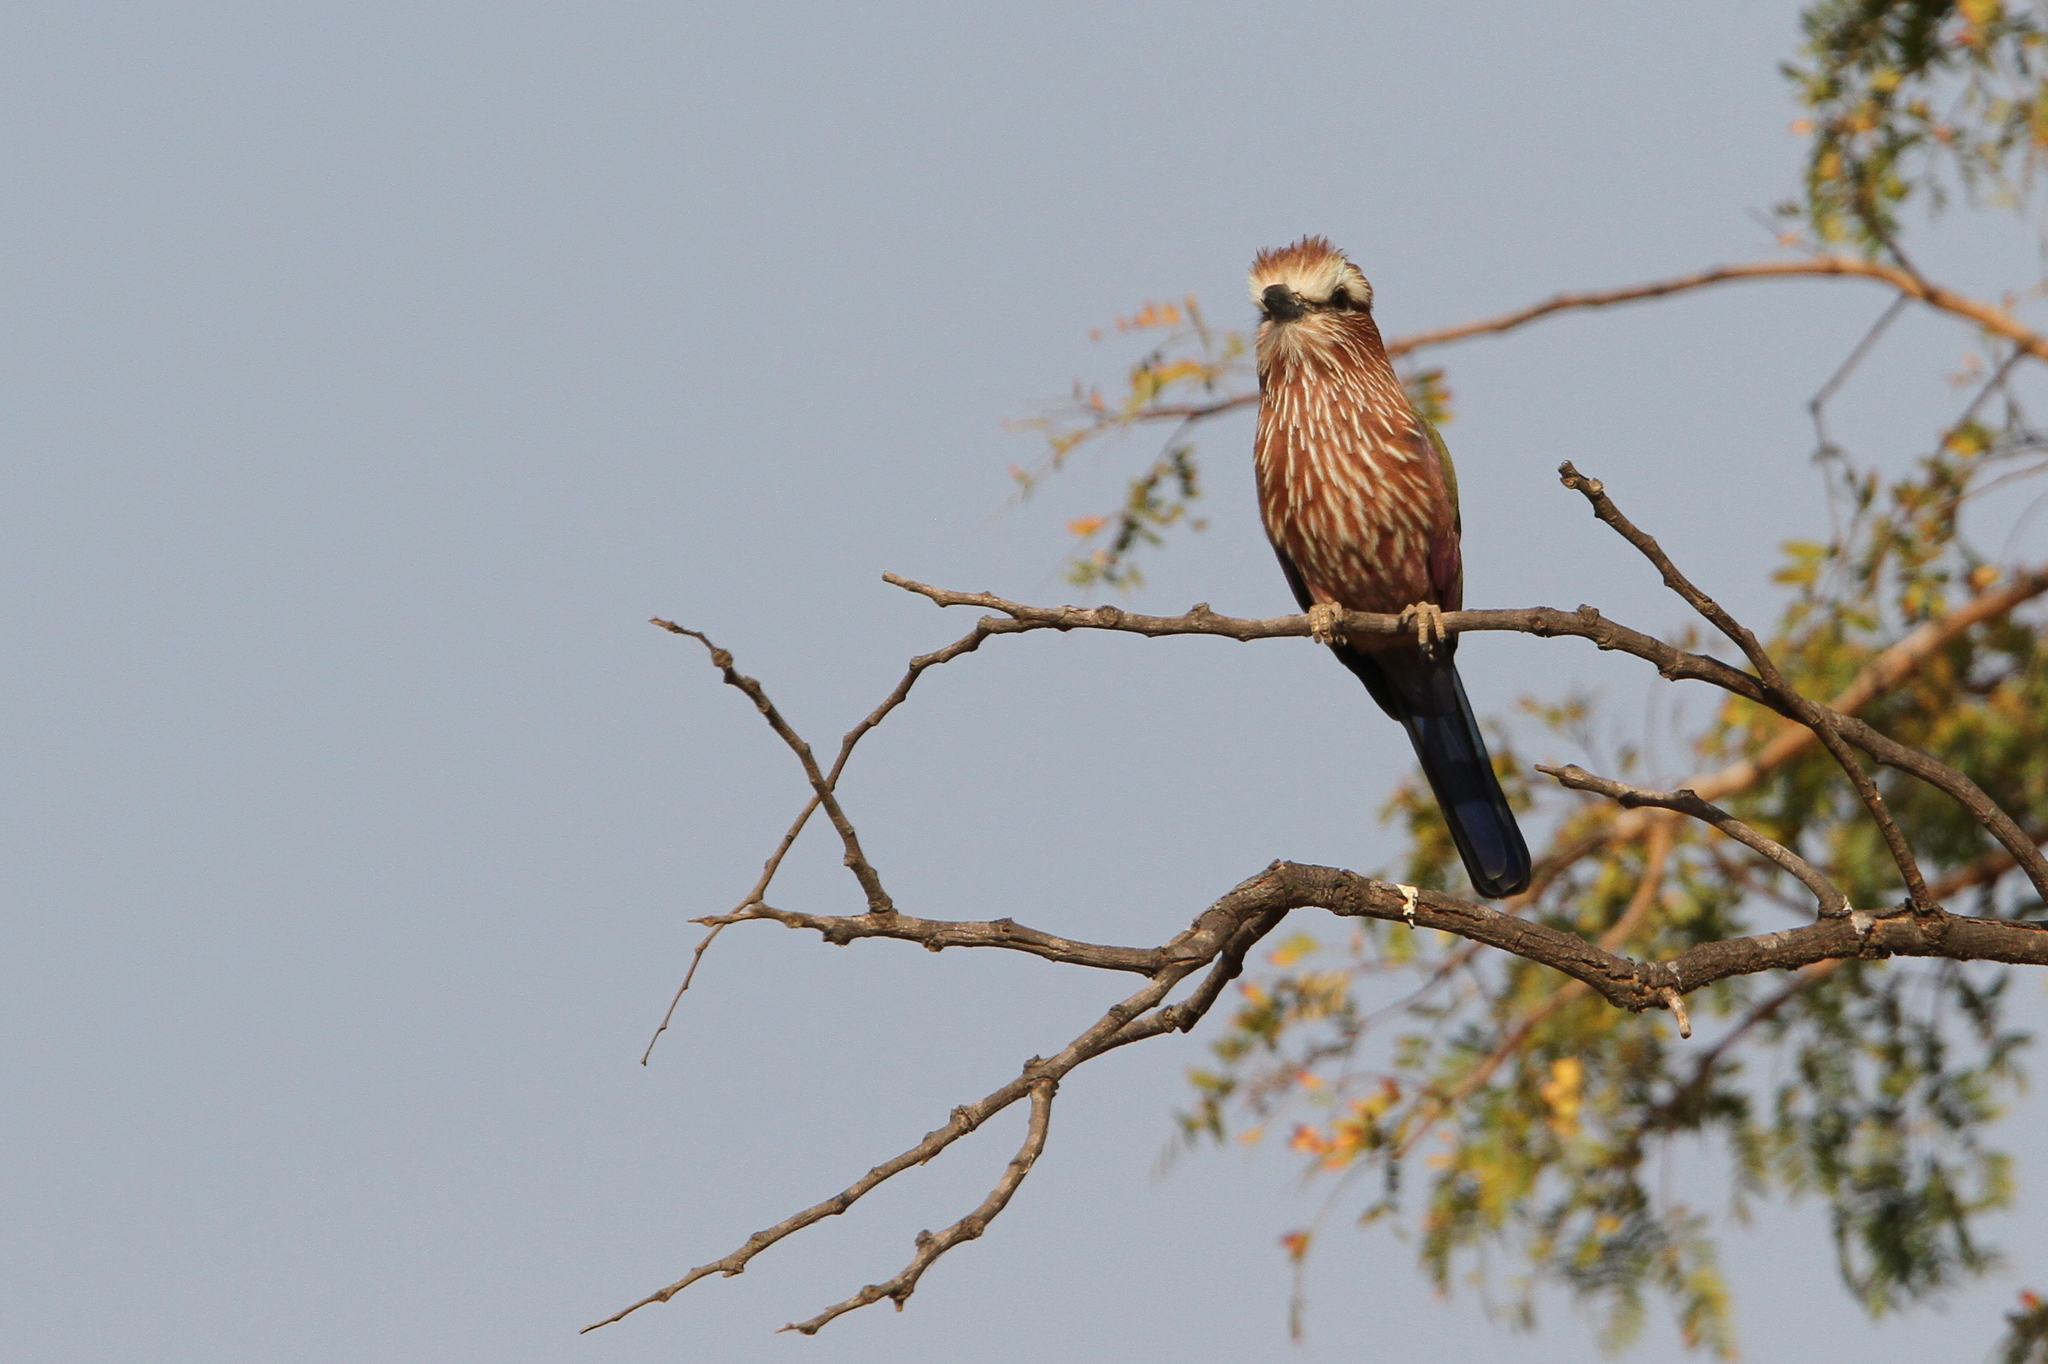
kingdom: Animalia
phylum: Chordata
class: Aves
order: Coraciiformes
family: Coraciidae
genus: Coracias
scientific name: Coracias naevius
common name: Purple roller
